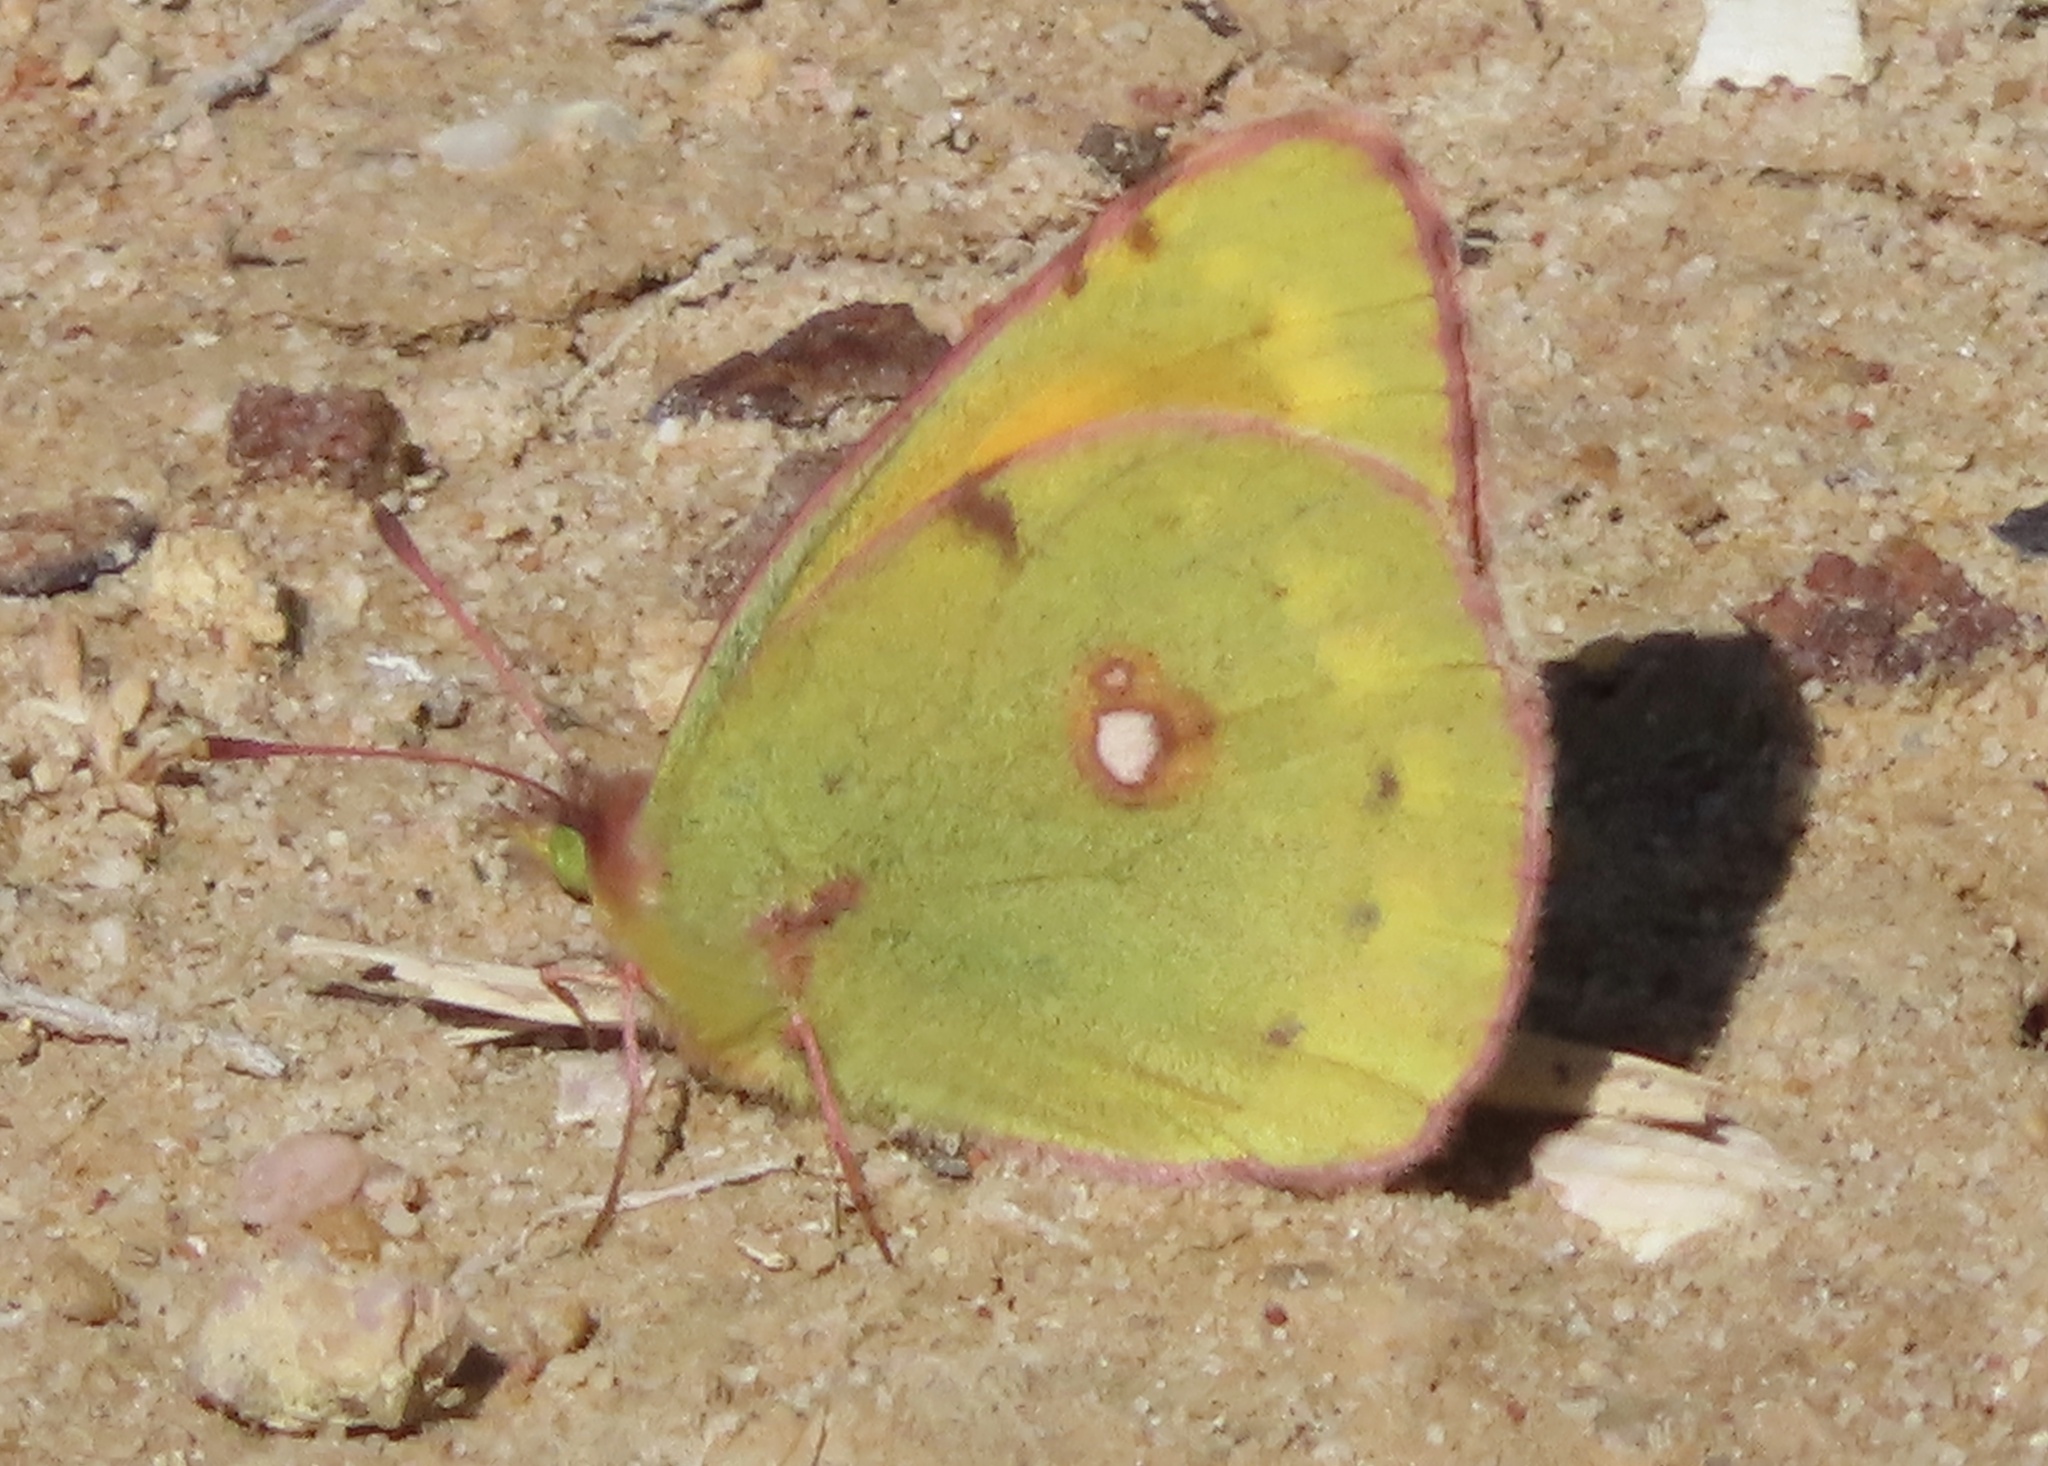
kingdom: Animalia
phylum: Arthropoda
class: Insecta
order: Lepidoptera
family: Pieridae
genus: Colias
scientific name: Colias croceus
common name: Clouded yellow
